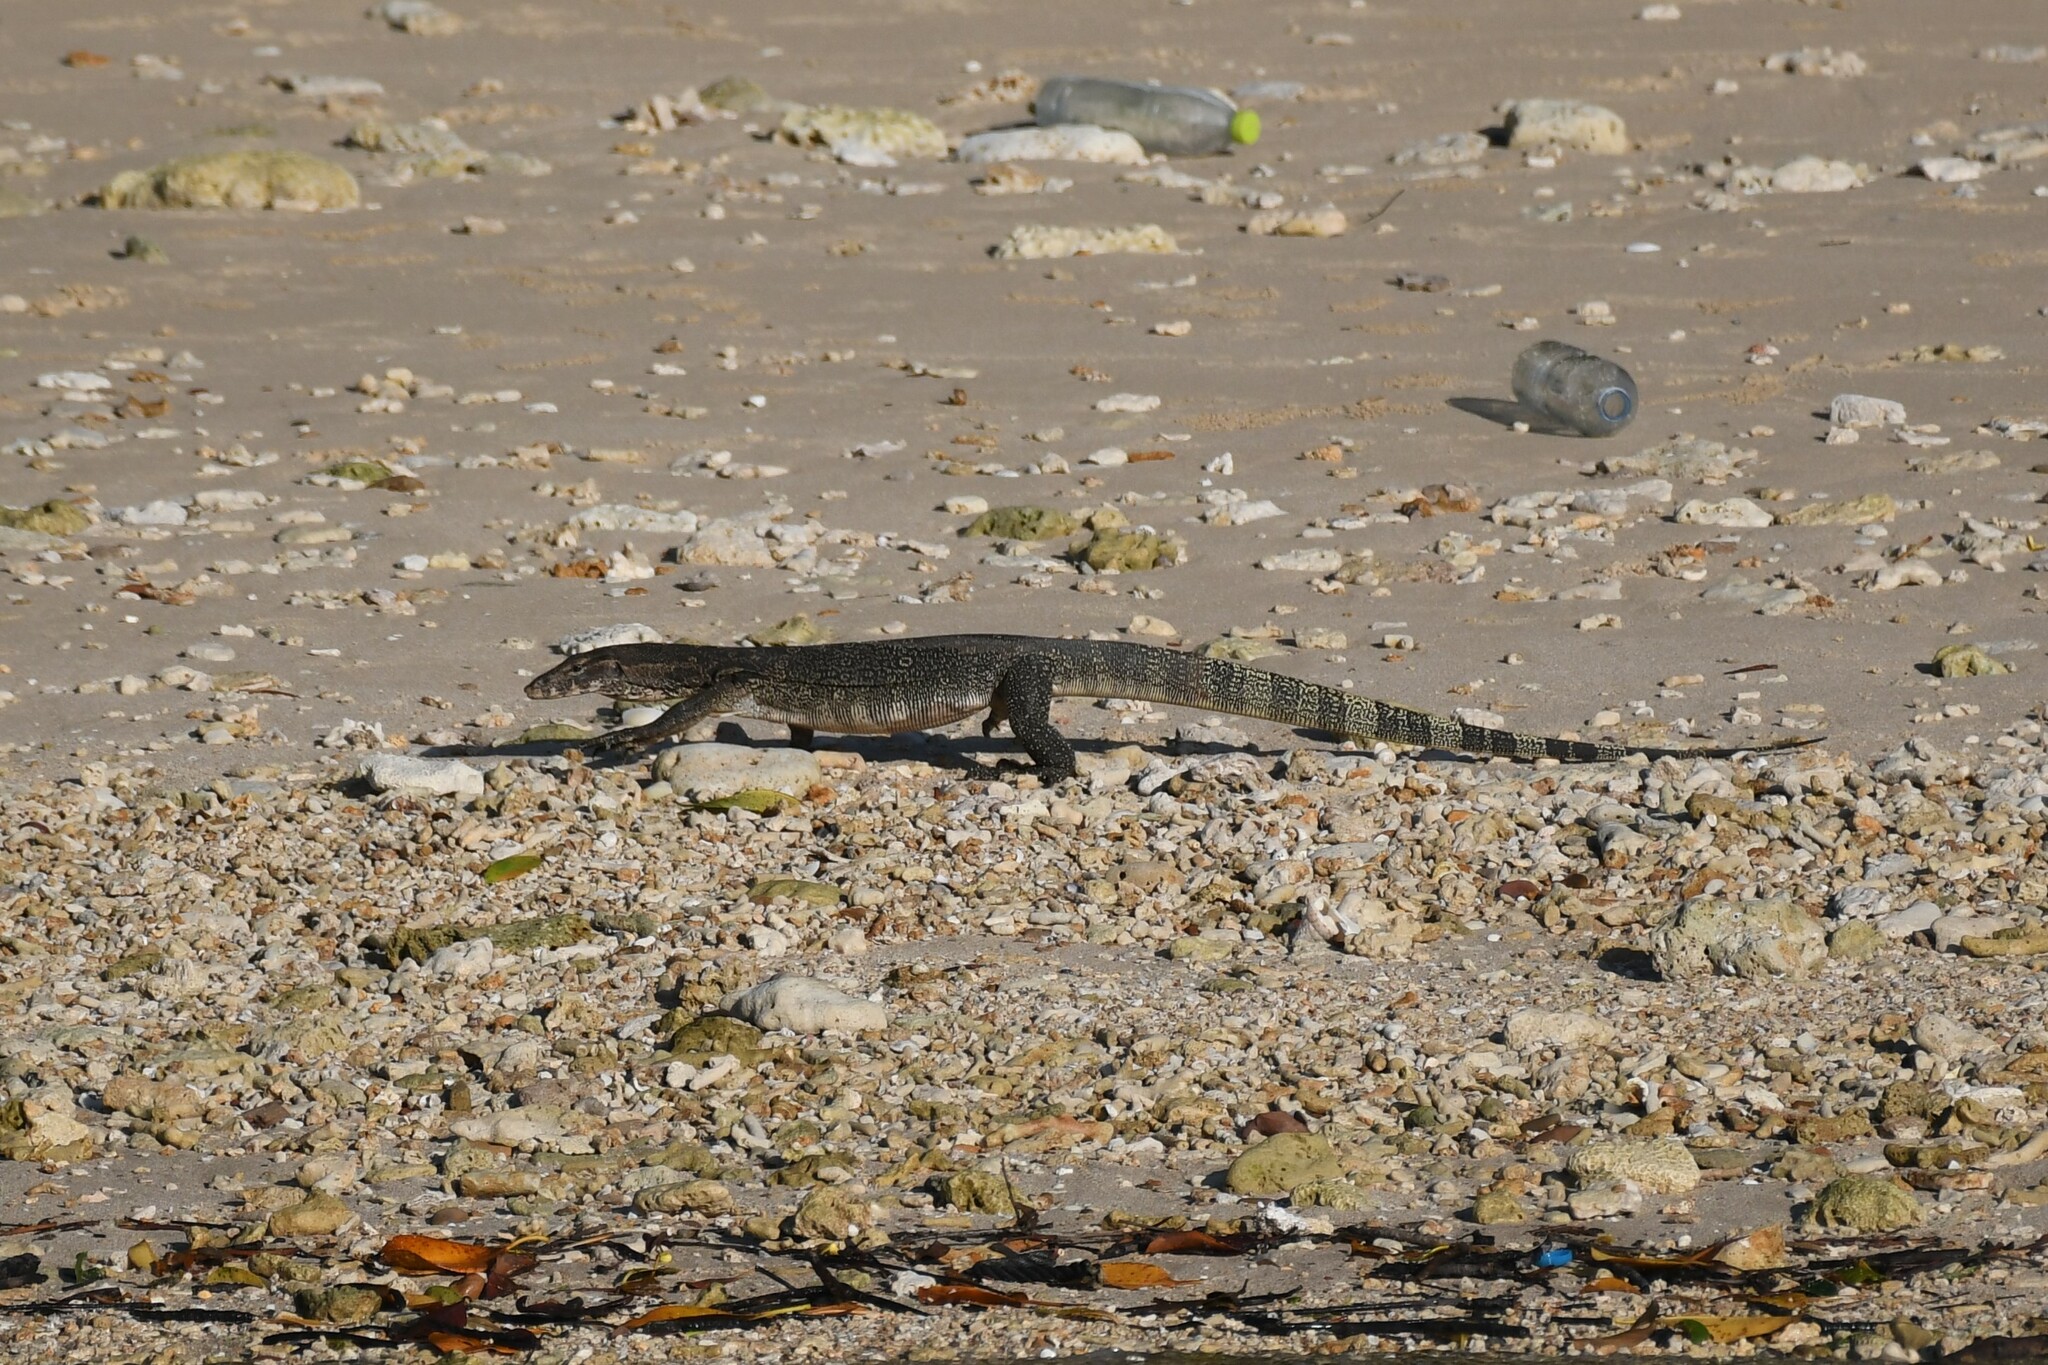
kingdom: Animalia
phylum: Chordata
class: Squamata
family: Varanidae
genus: Varanus
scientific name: Varanus salvator
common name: Common water monitor
